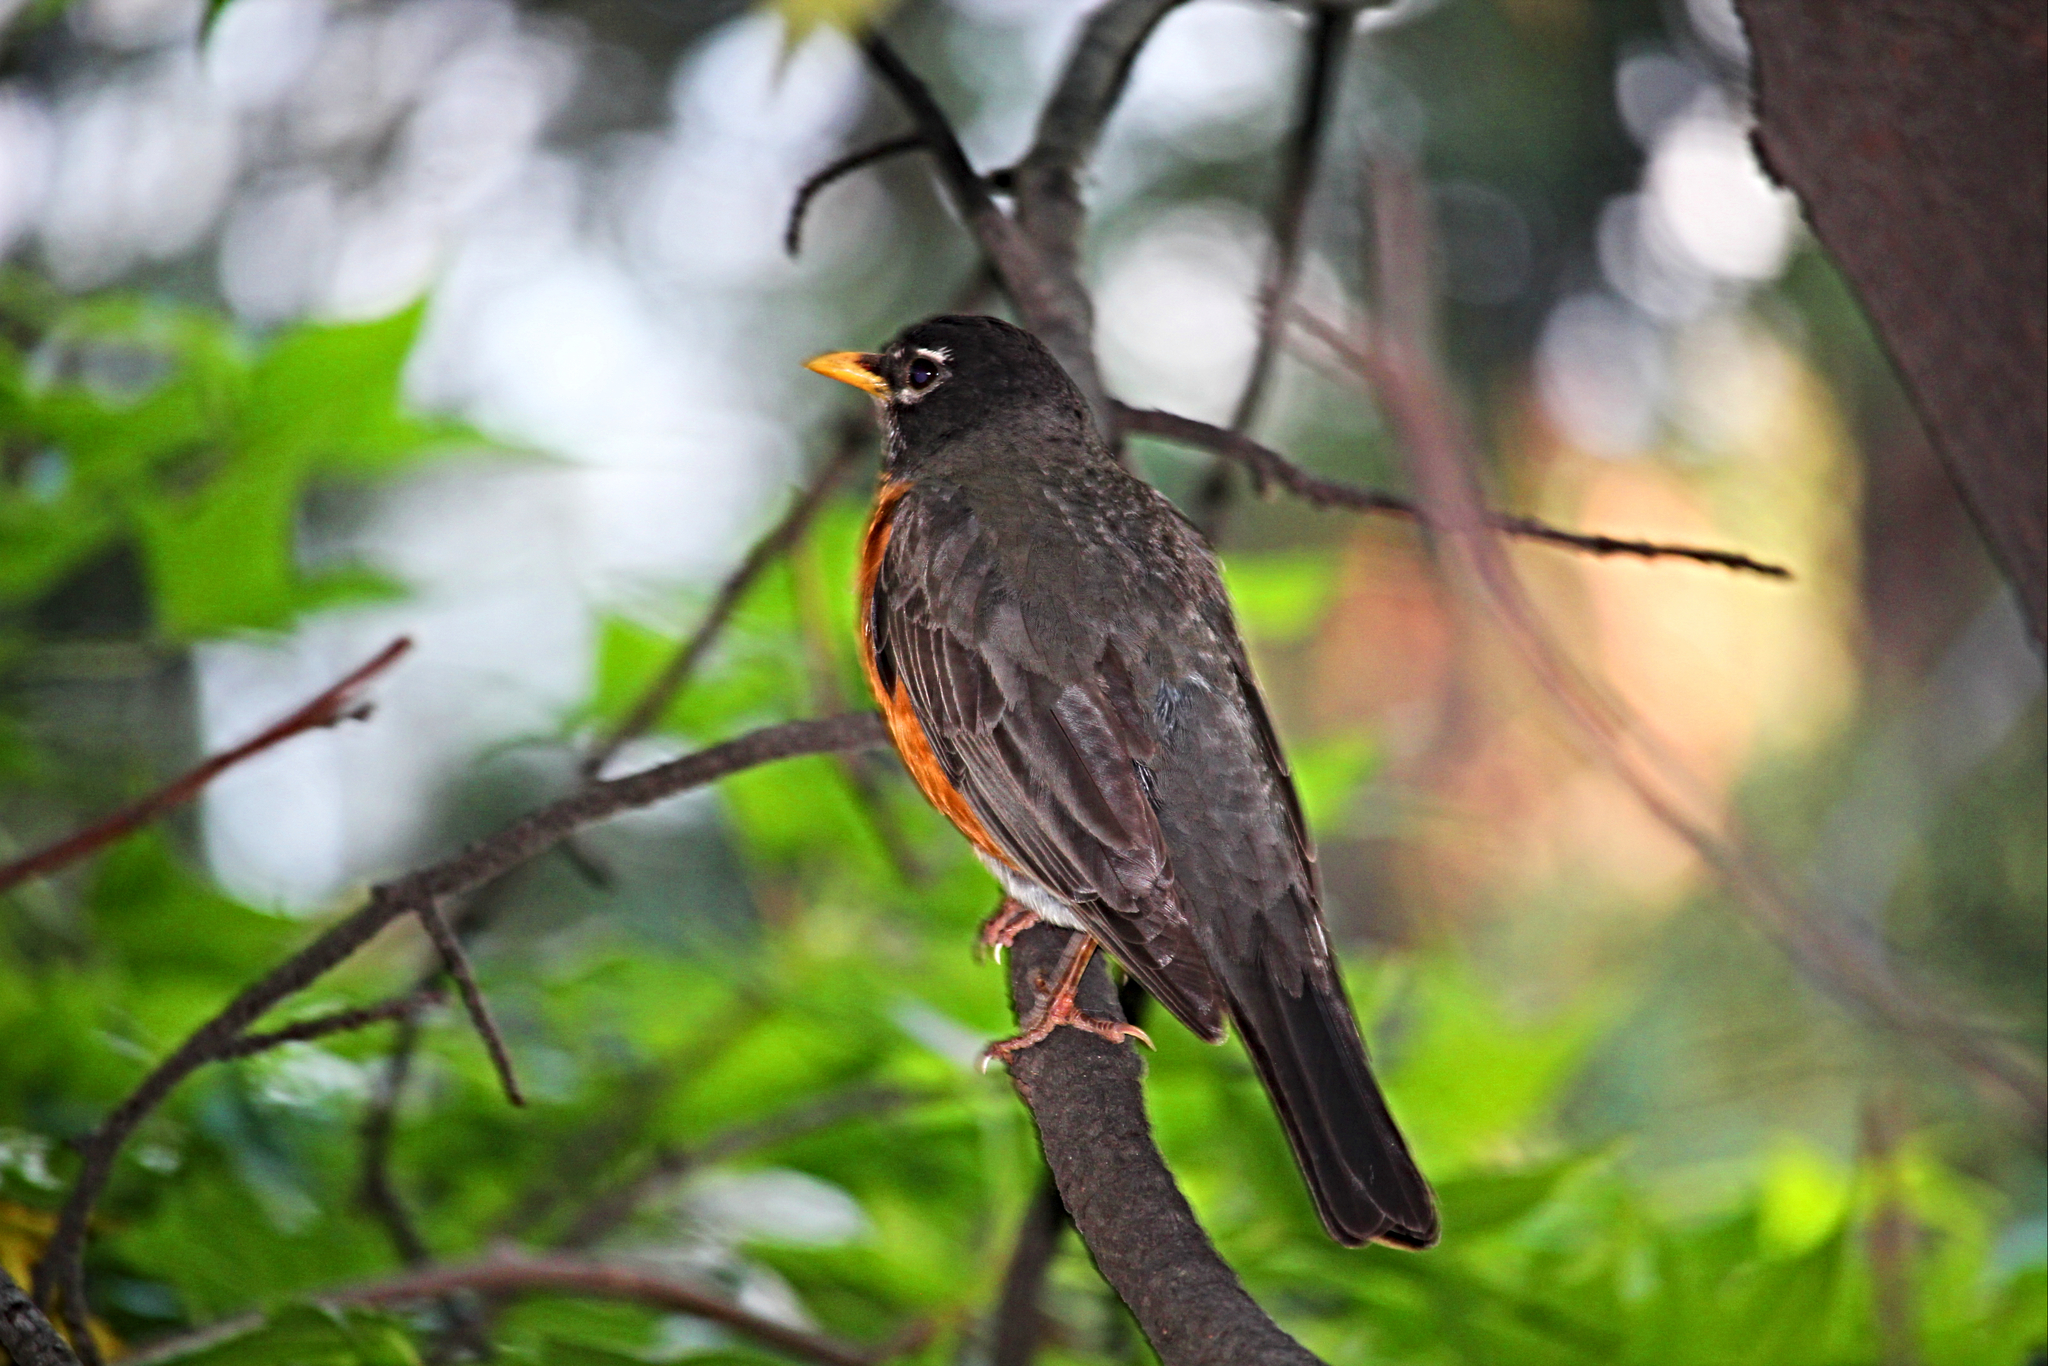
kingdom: Animalia
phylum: Chordata
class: Aves
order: Passeriformes
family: Turdidae
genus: Turdus
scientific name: Turdus migratorius
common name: American robin
